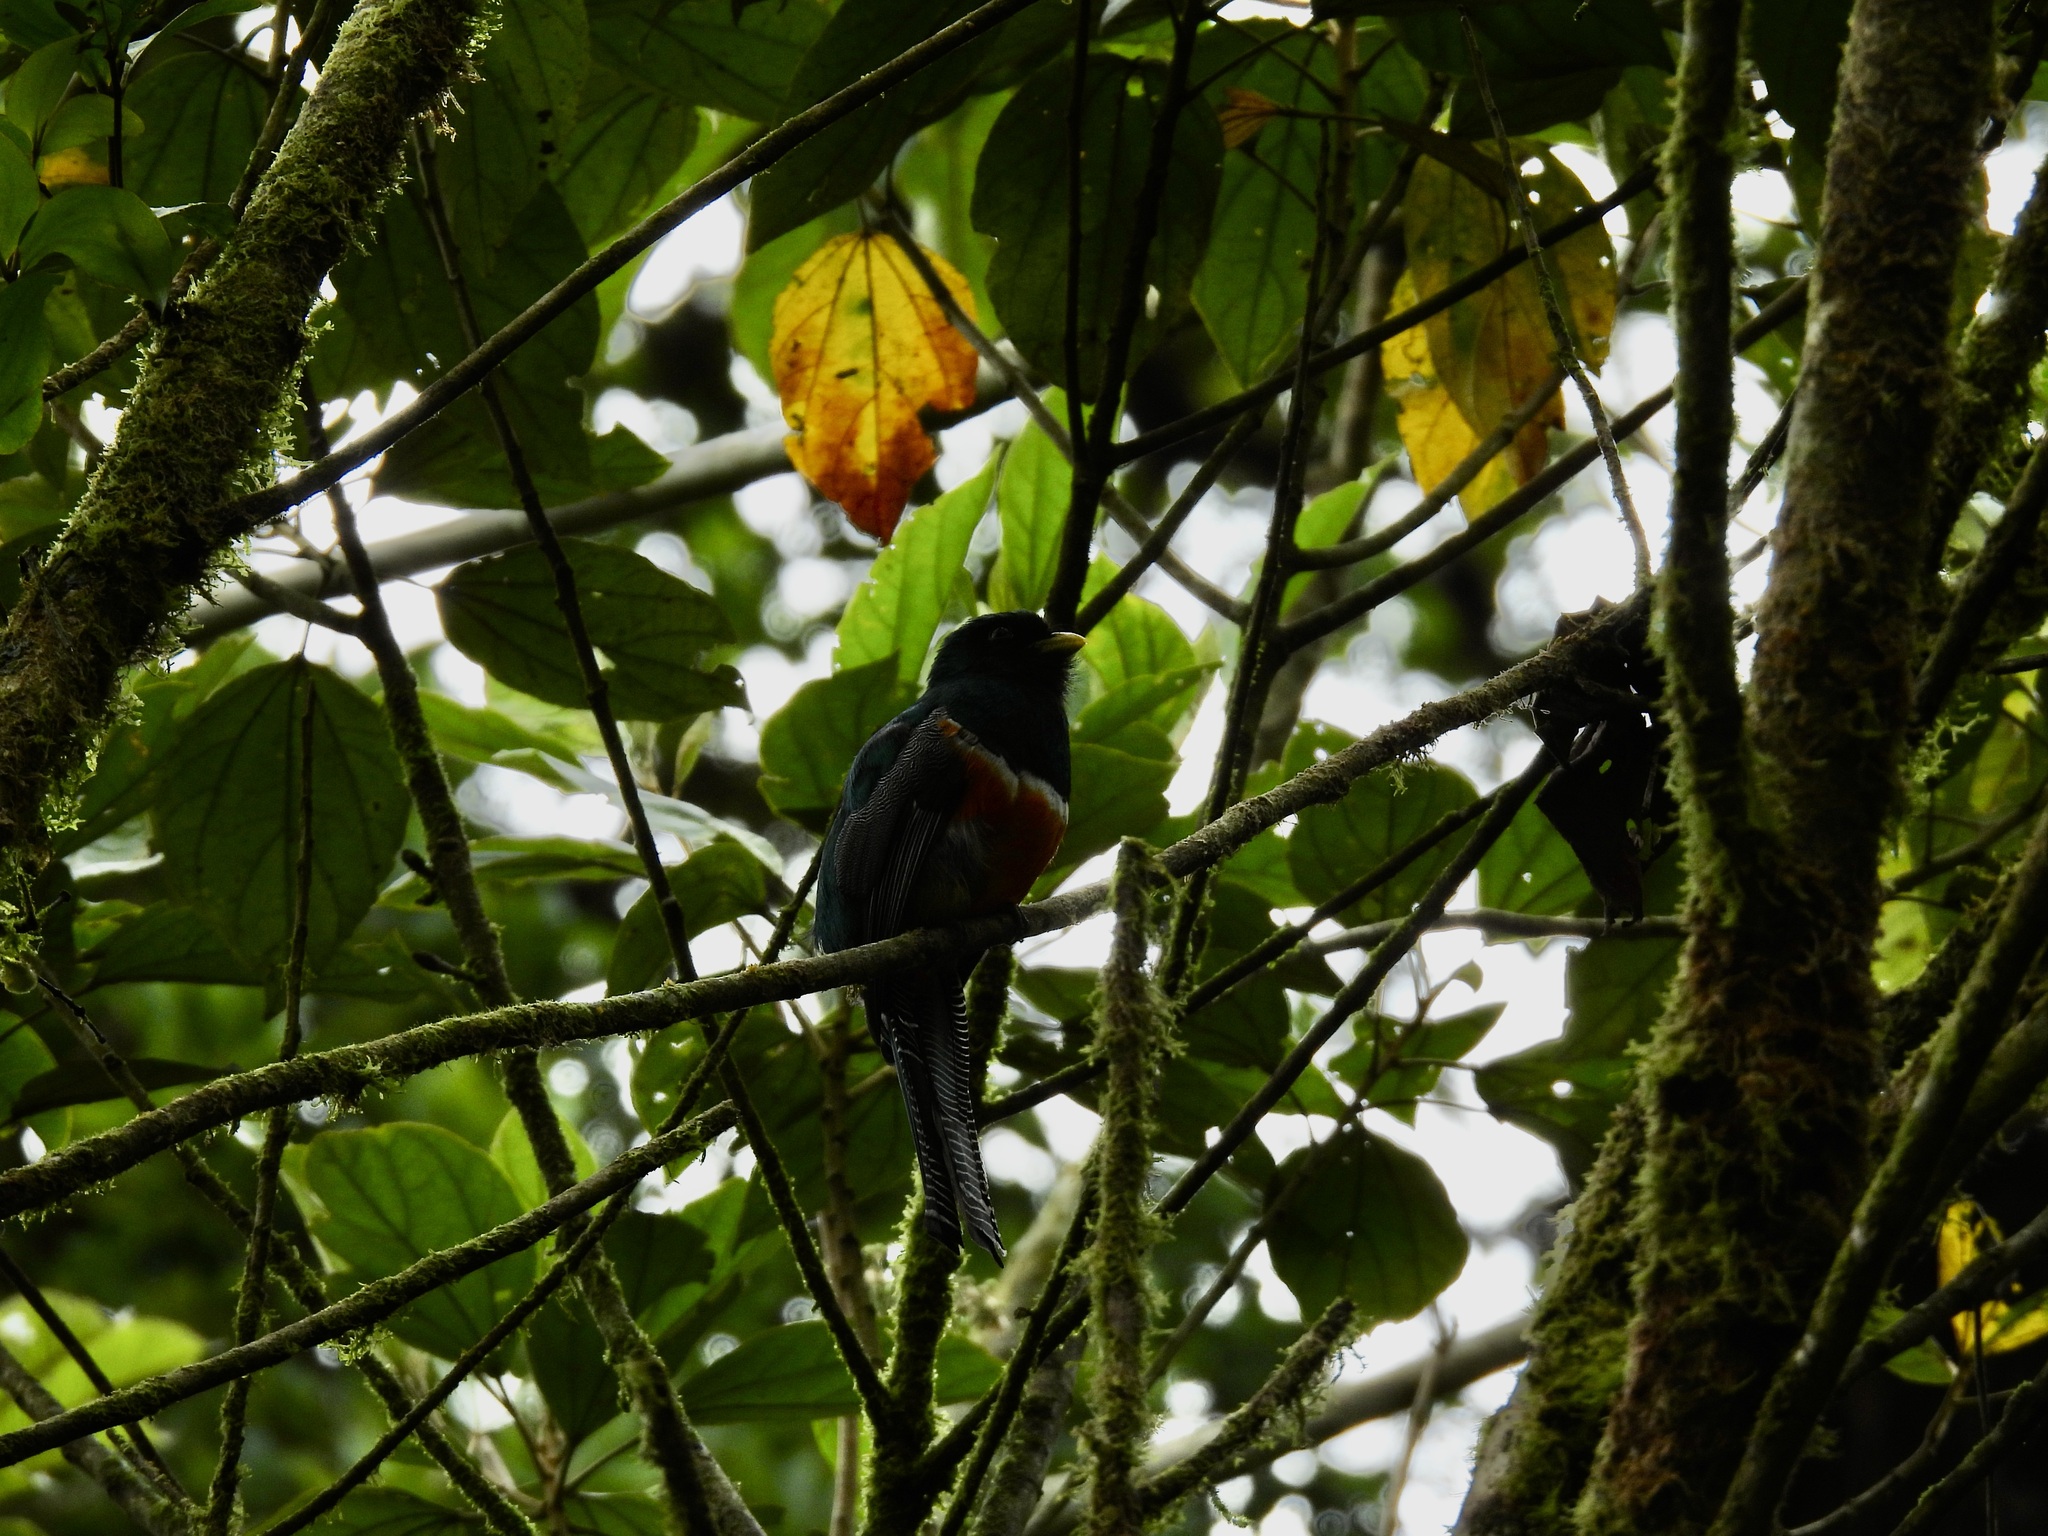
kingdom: Animalia
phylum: Chordata
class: Aves
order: Trogoniformes
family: Trogonidae
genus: Trogon
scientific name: Trogon collaris
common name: Collared trogon
